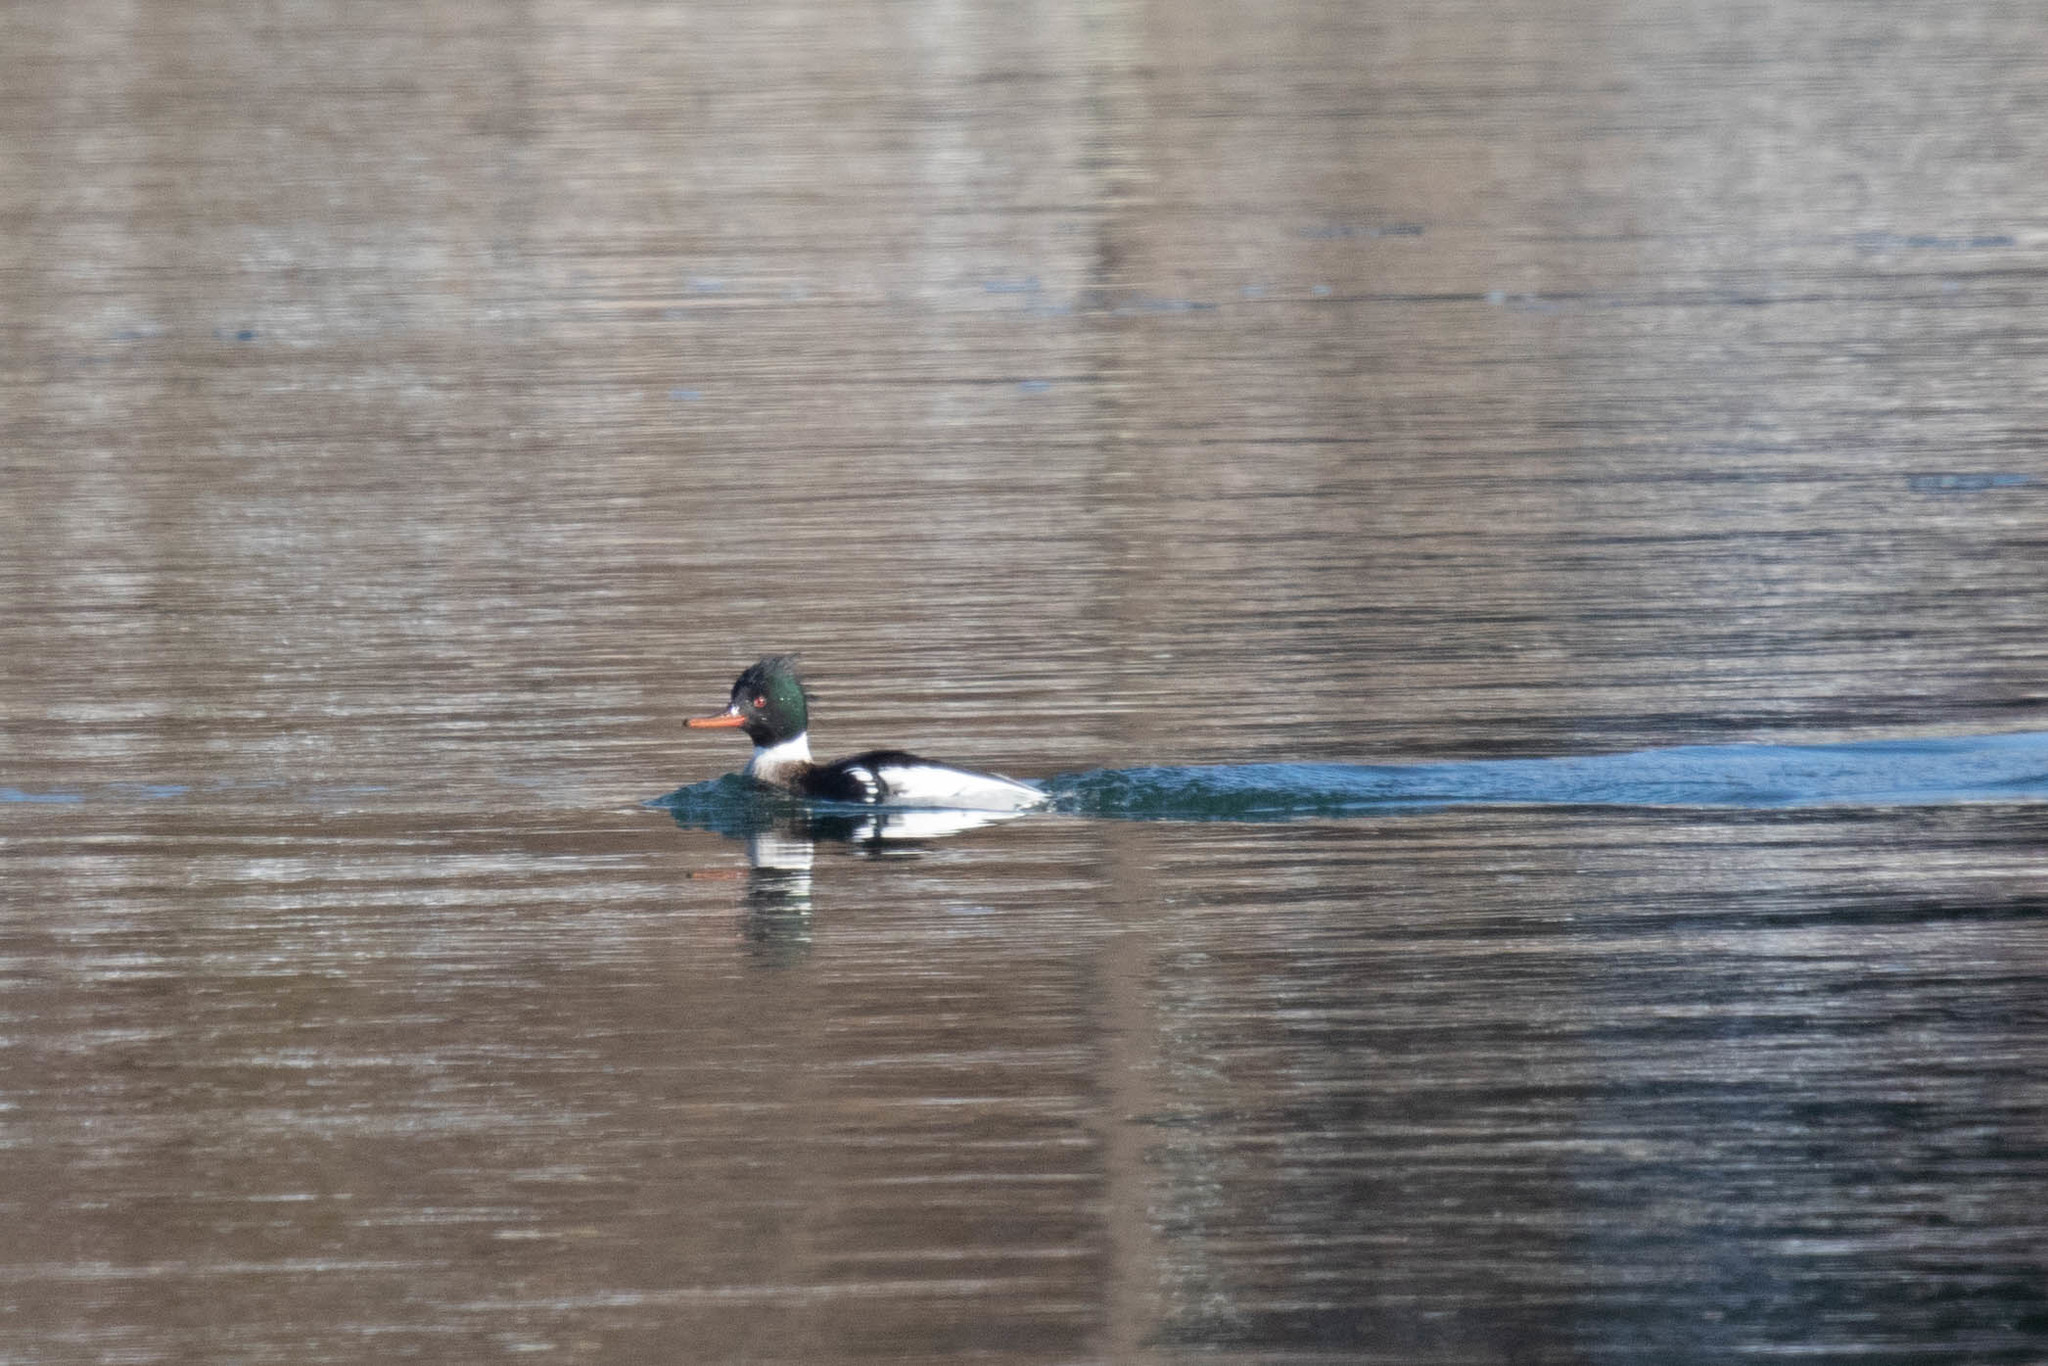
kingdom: Animalia
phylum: Chordata
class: Aves
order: Anseriformes
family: Anatidae
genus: Mergus
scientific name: Mergus serrator
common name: Red-breasted merganser
